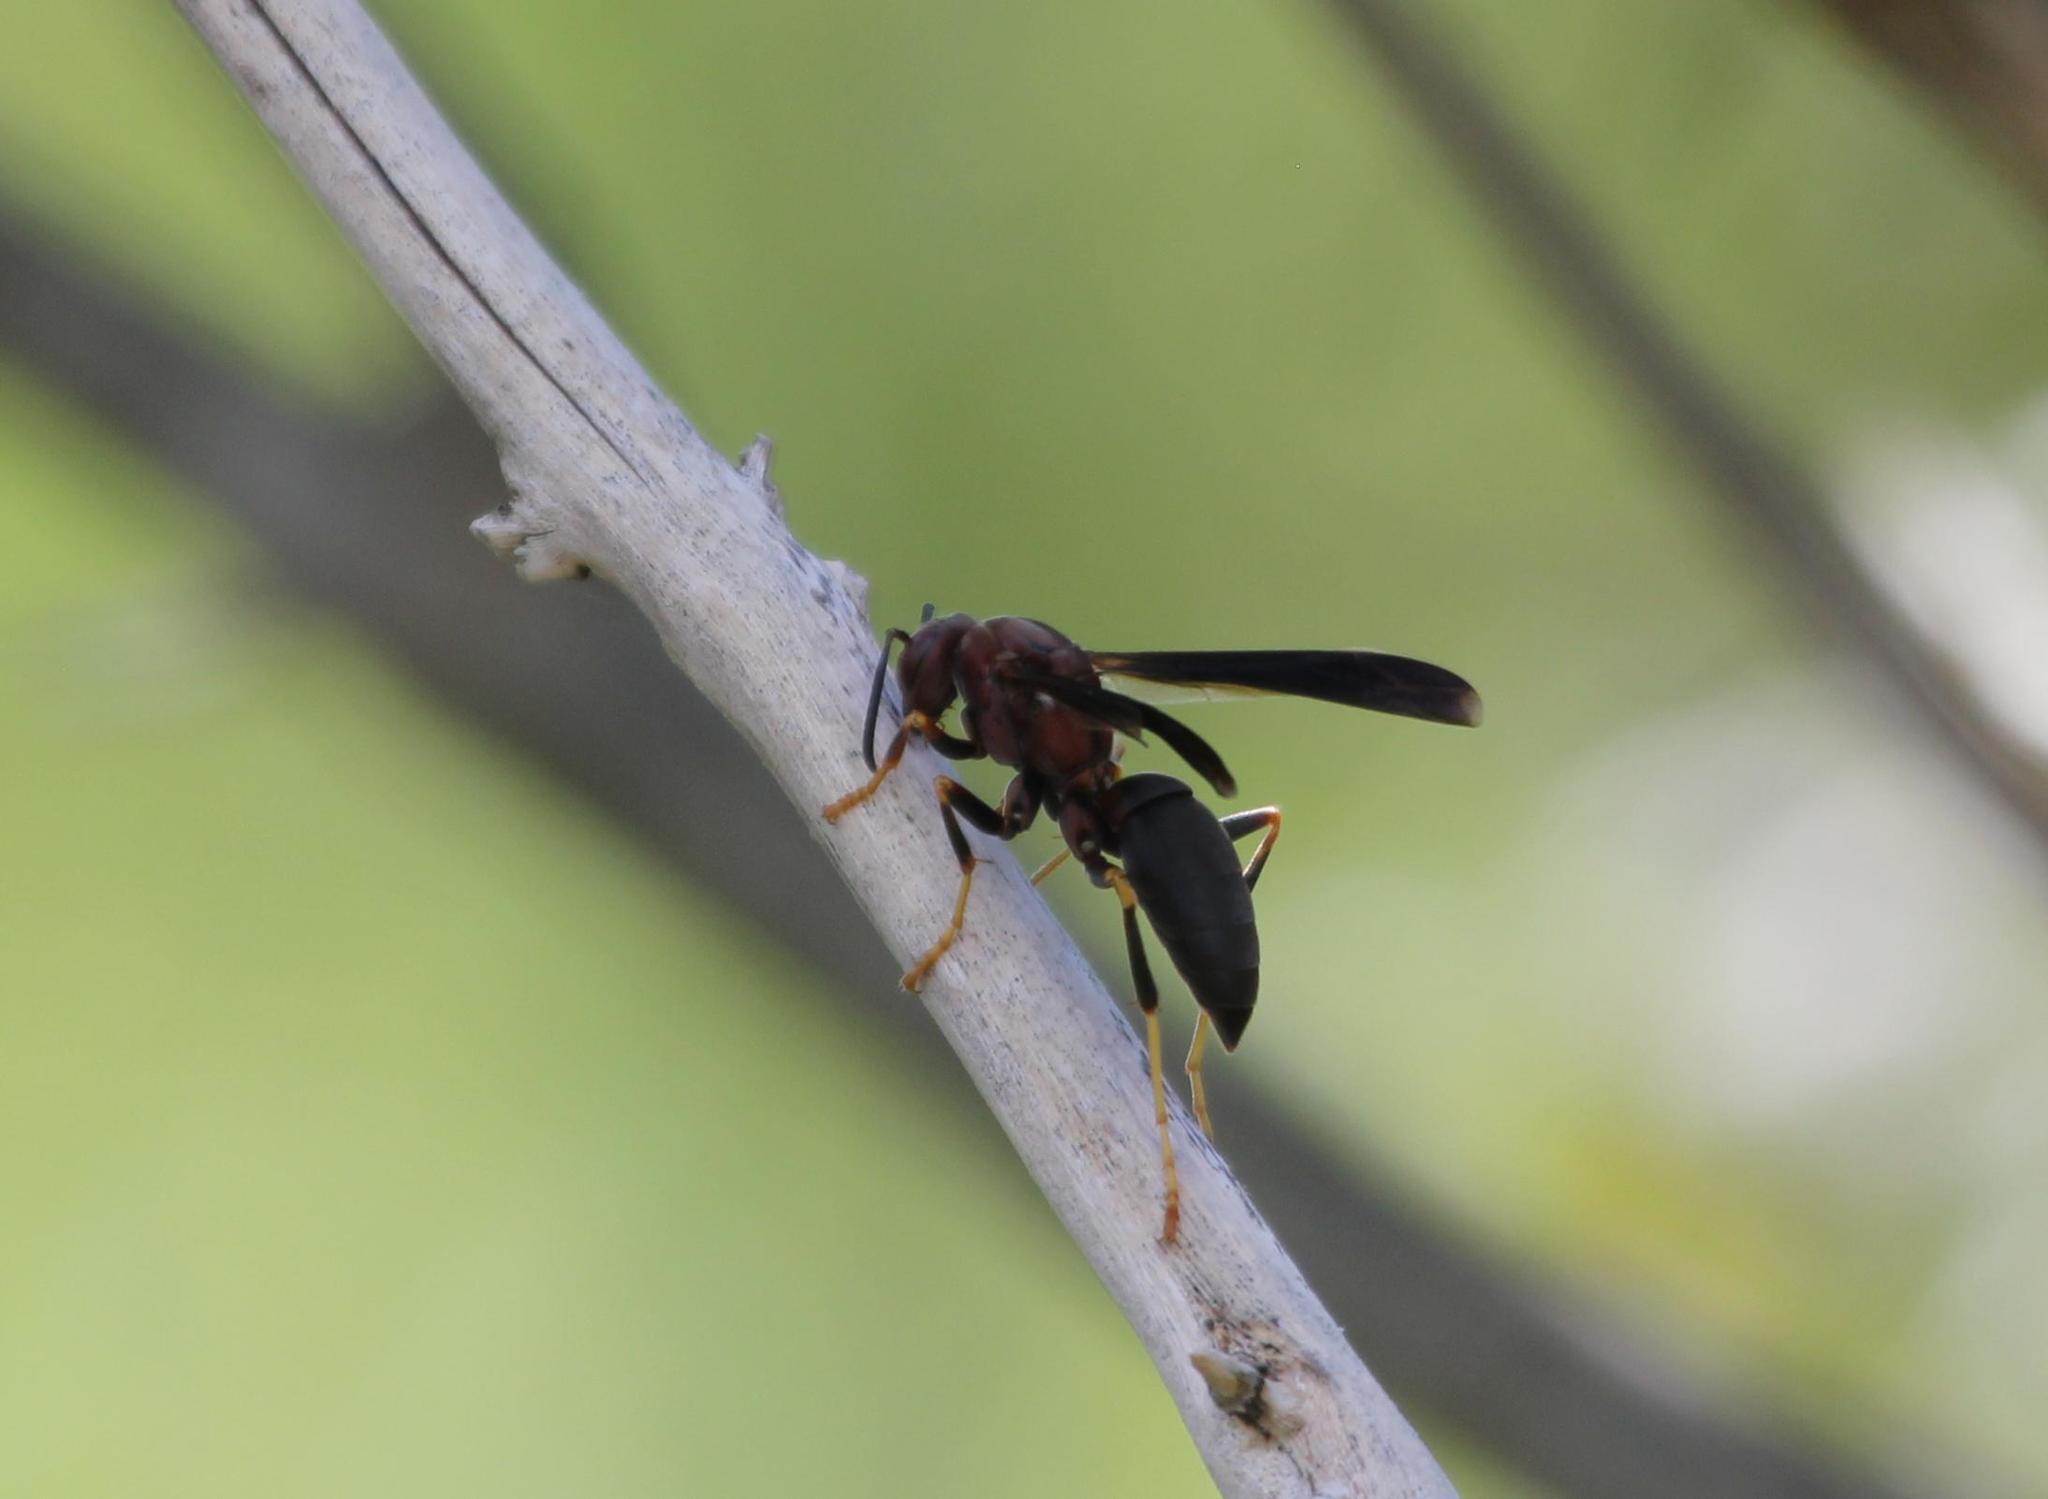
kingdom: Animalia
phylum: Arthropoda
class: Insecta
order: Hymenoptera
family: Eumenidae
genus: Polistes
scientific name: Polistes metricus
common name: Metric paper wasp
